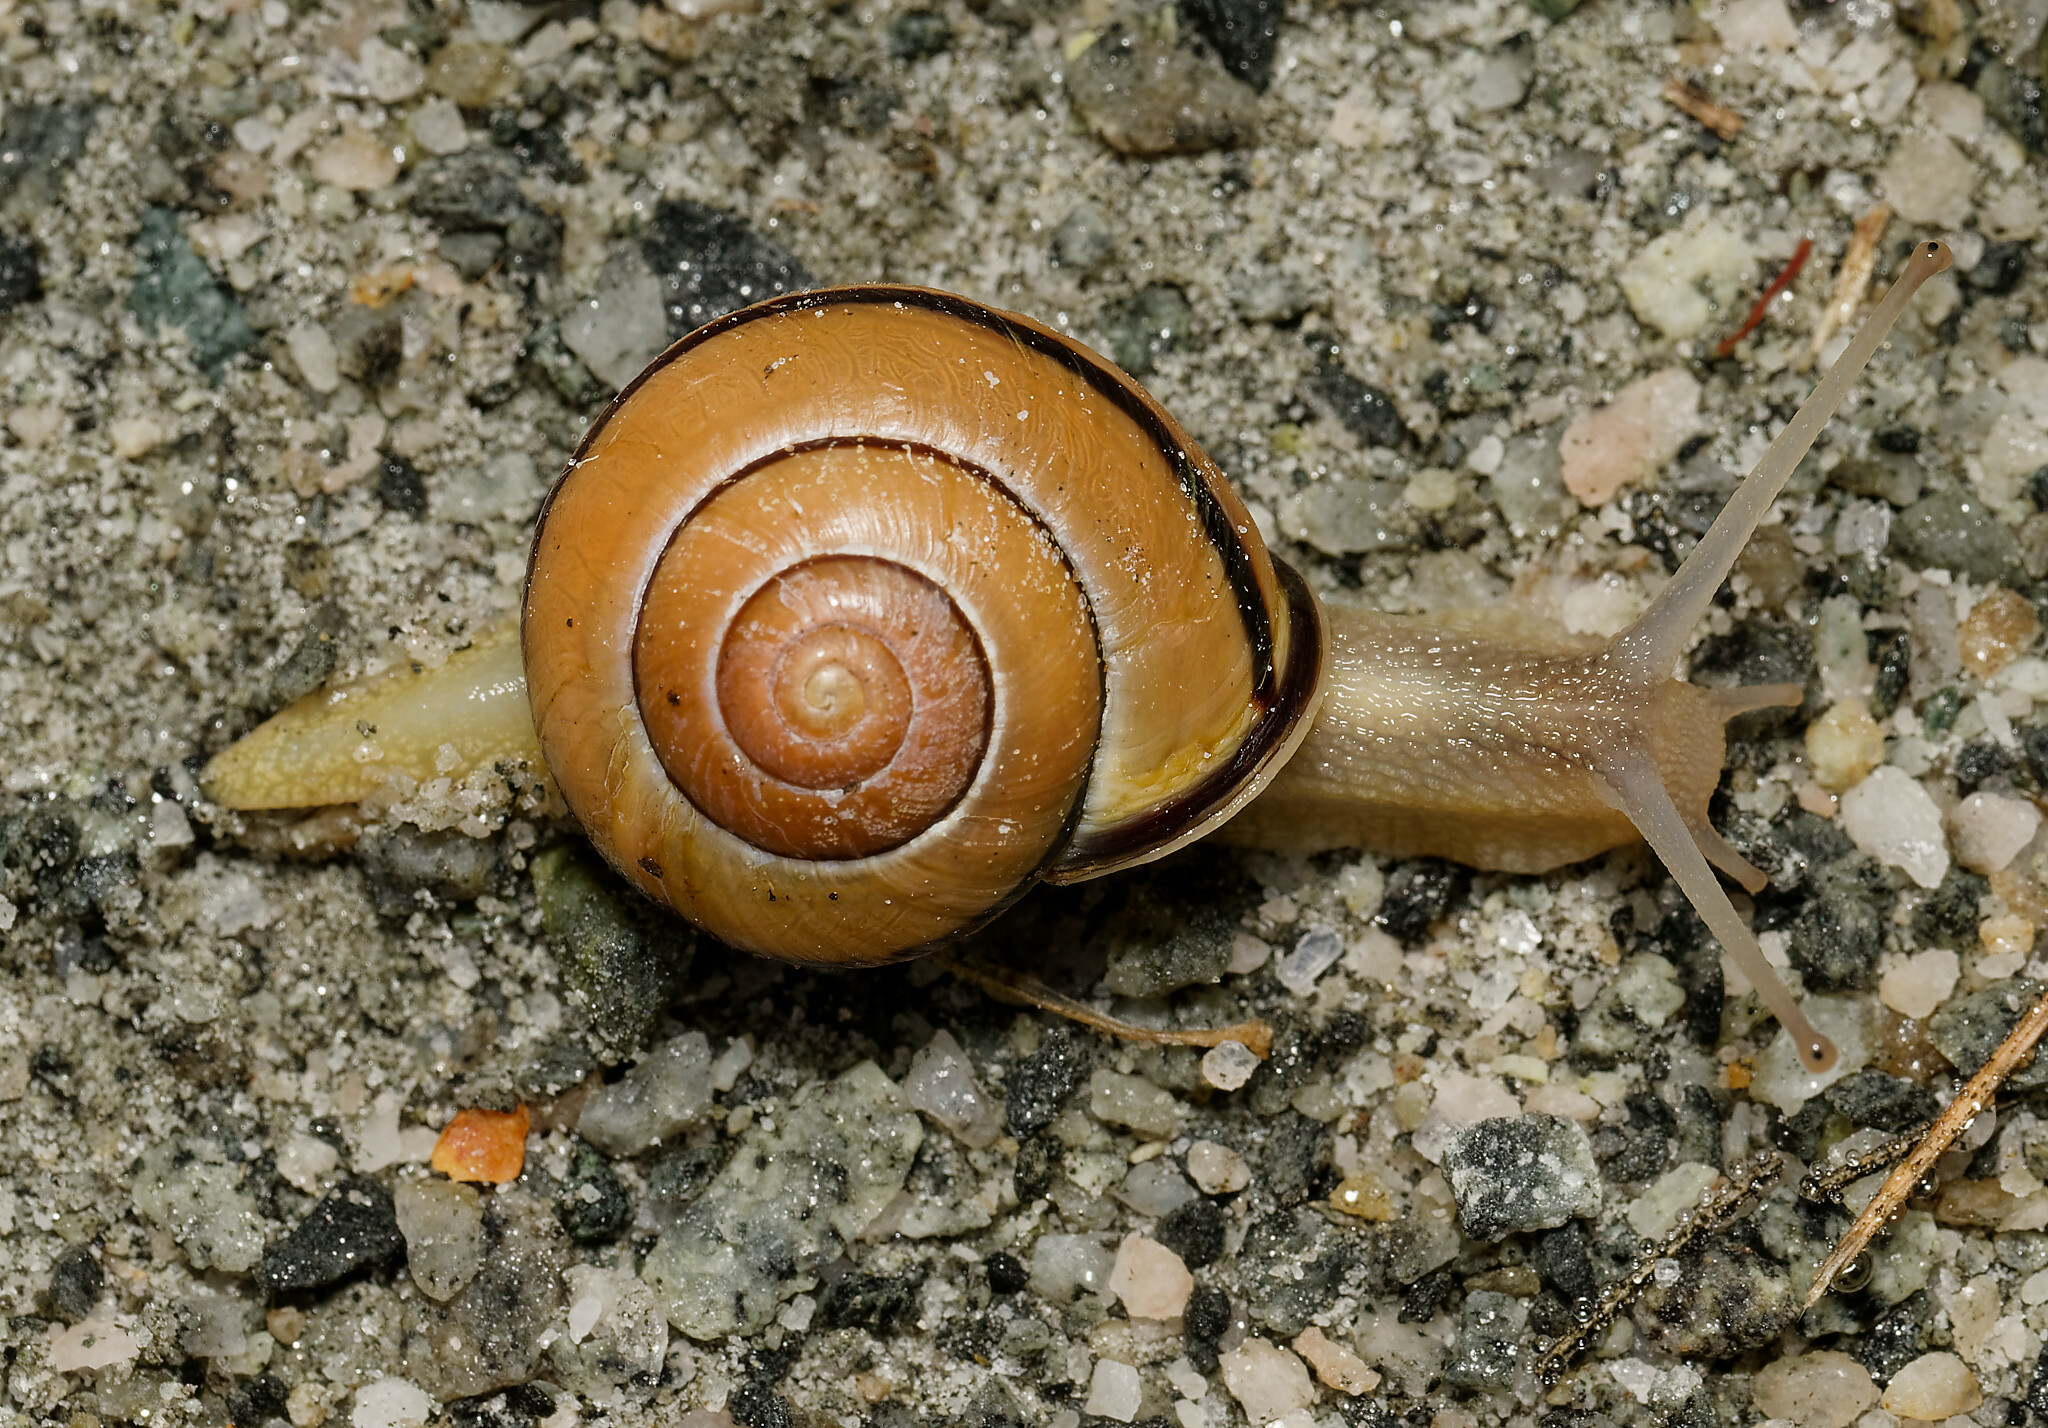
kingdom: Animalia
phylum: Mollusca
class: Gastropoda
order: Stylommatophora
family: Helicidae
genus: Cepaea
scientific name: Cepaea nemoralis
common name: Grovesnail
